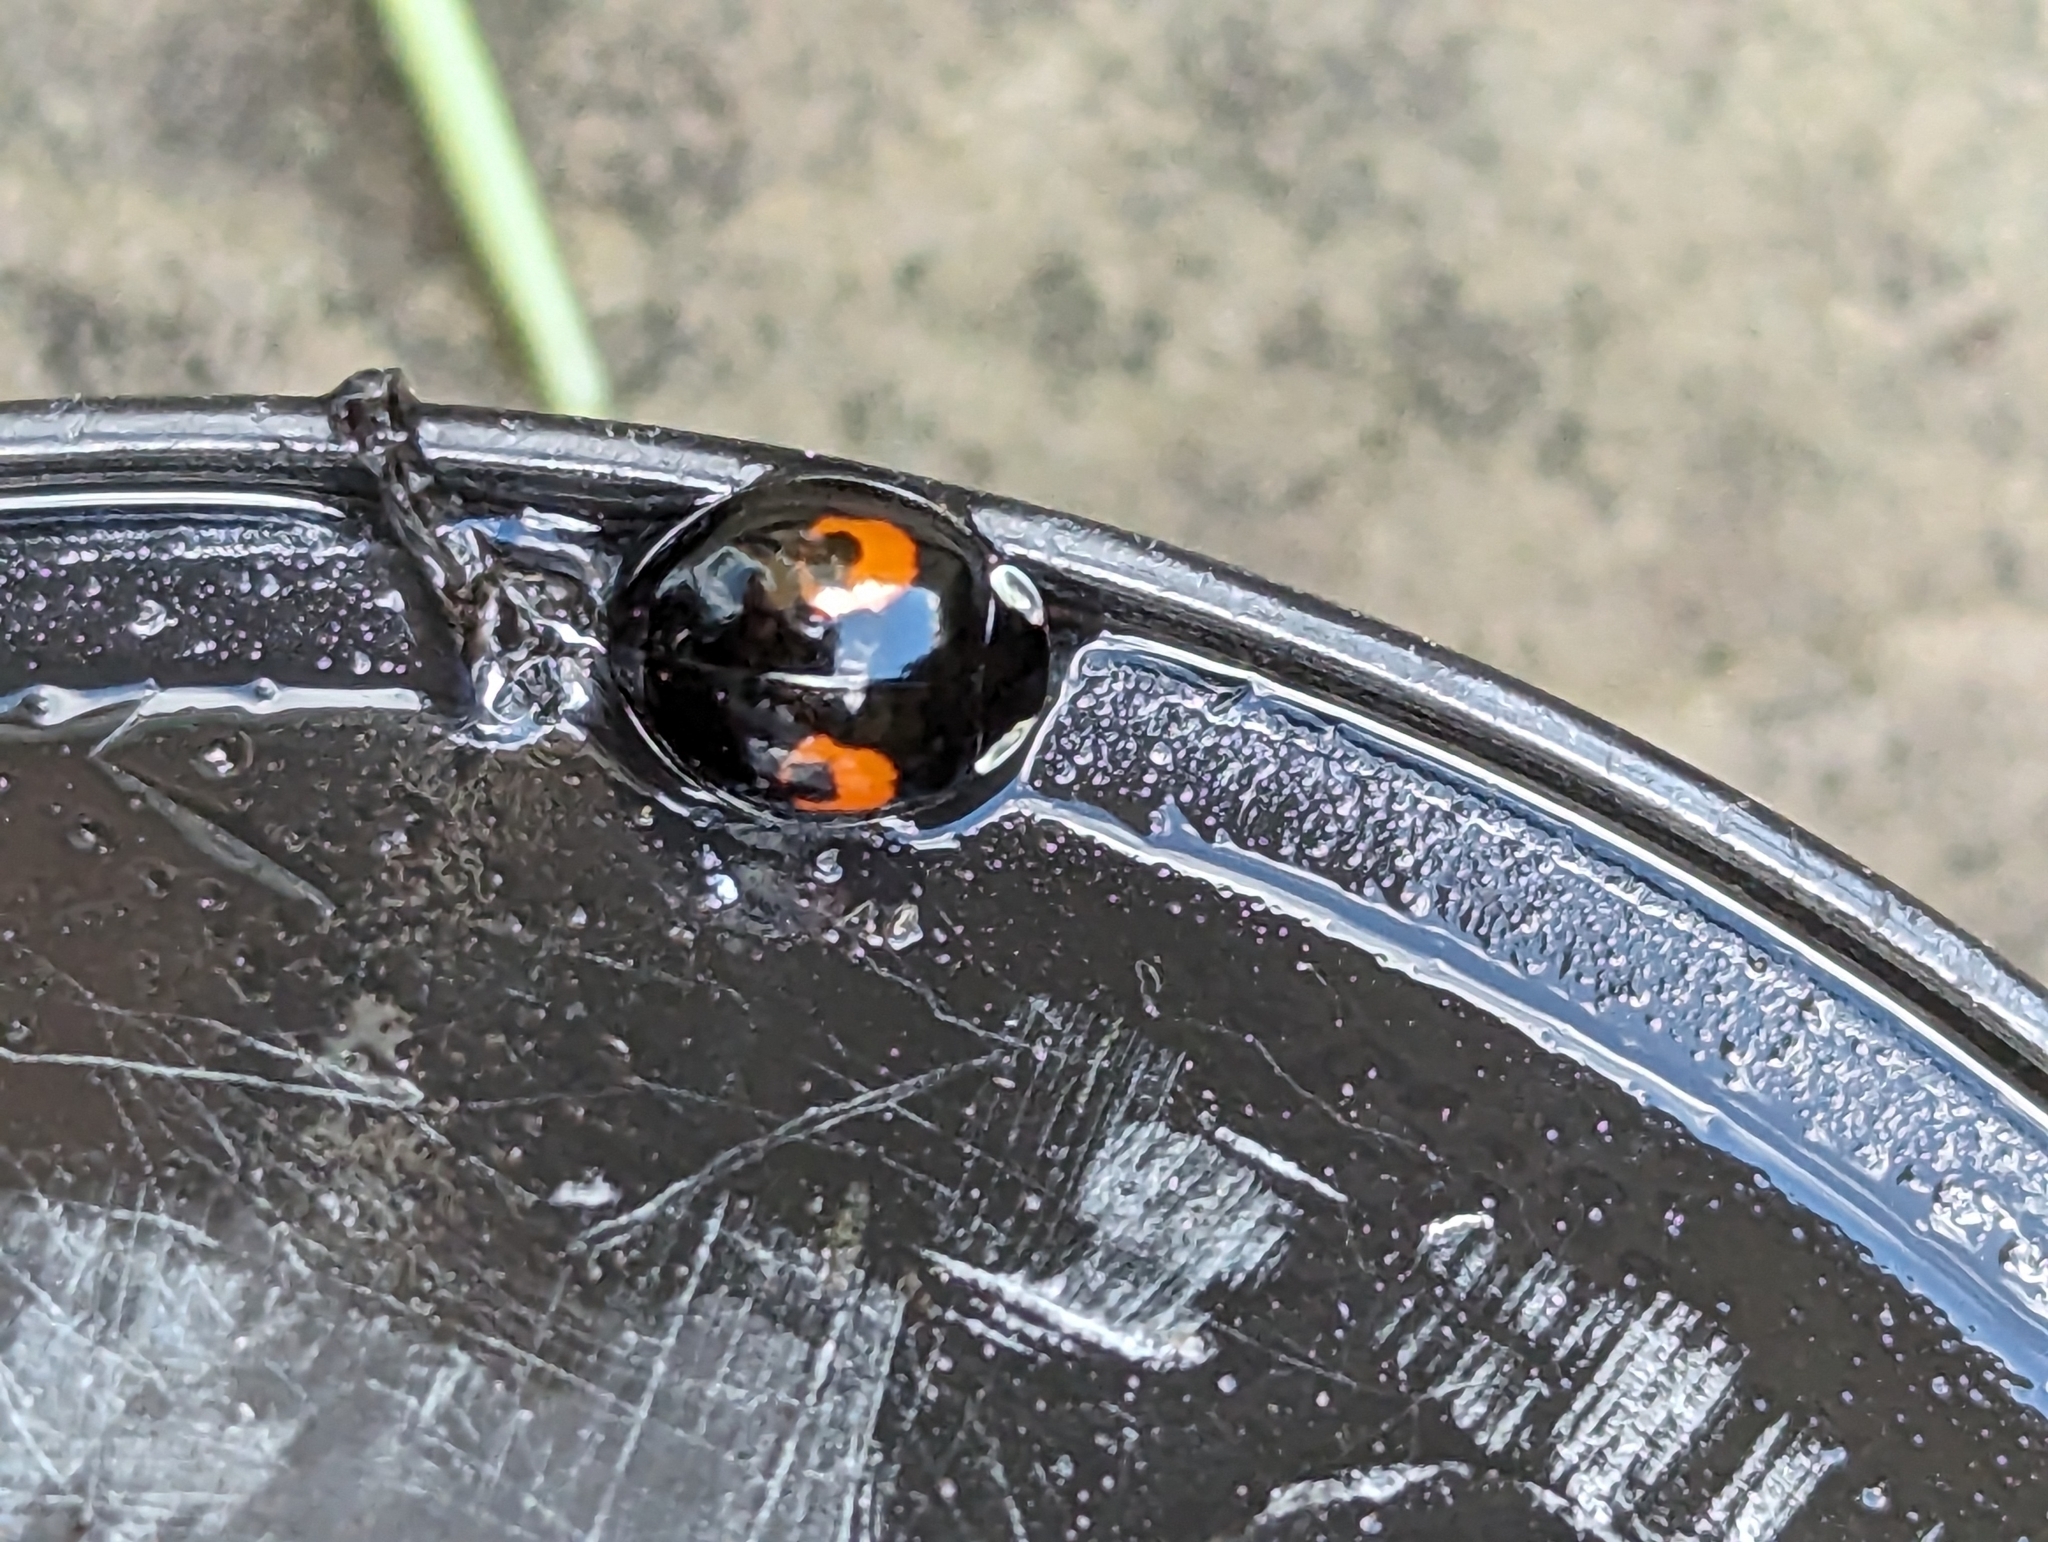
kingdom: Animalia
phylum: Arthropoda
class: Insecta
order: Coleoptera
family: Coccinellidae
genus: Harmonia
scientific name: Harmonia axyridis
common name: Harlequin ladybird
